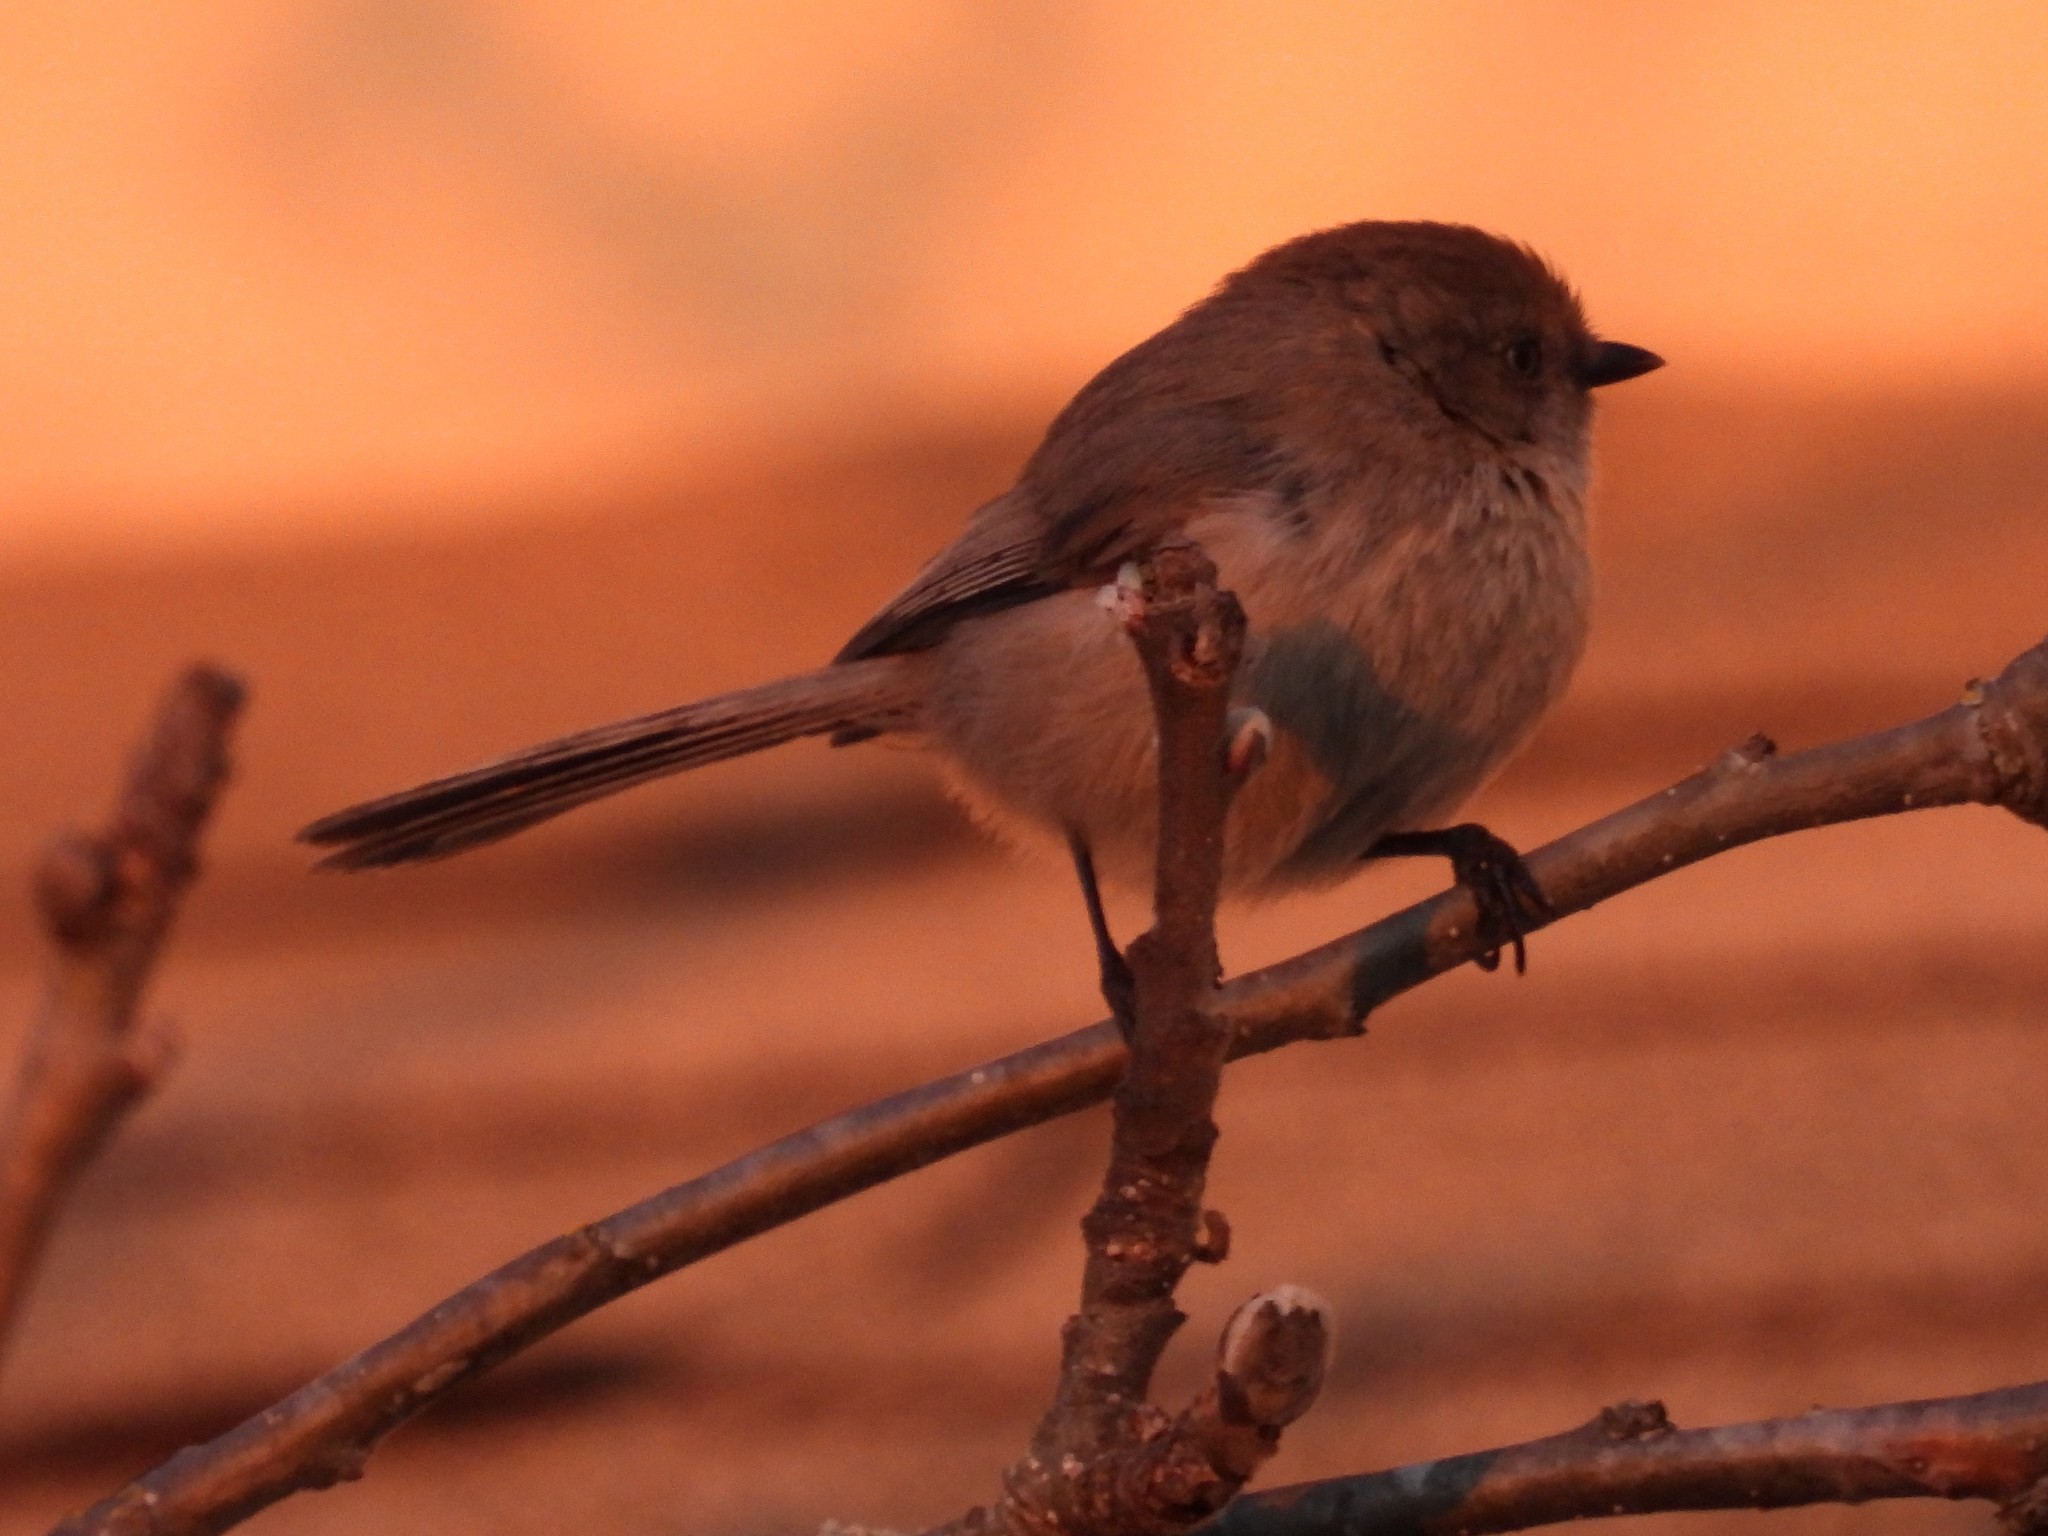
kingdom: Animalia
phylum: Chordata
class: Aves
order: Passeriformes
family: Aegithalidae
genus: Psaltriparus
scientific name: Psaltriparus minimus
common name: American bushtit
